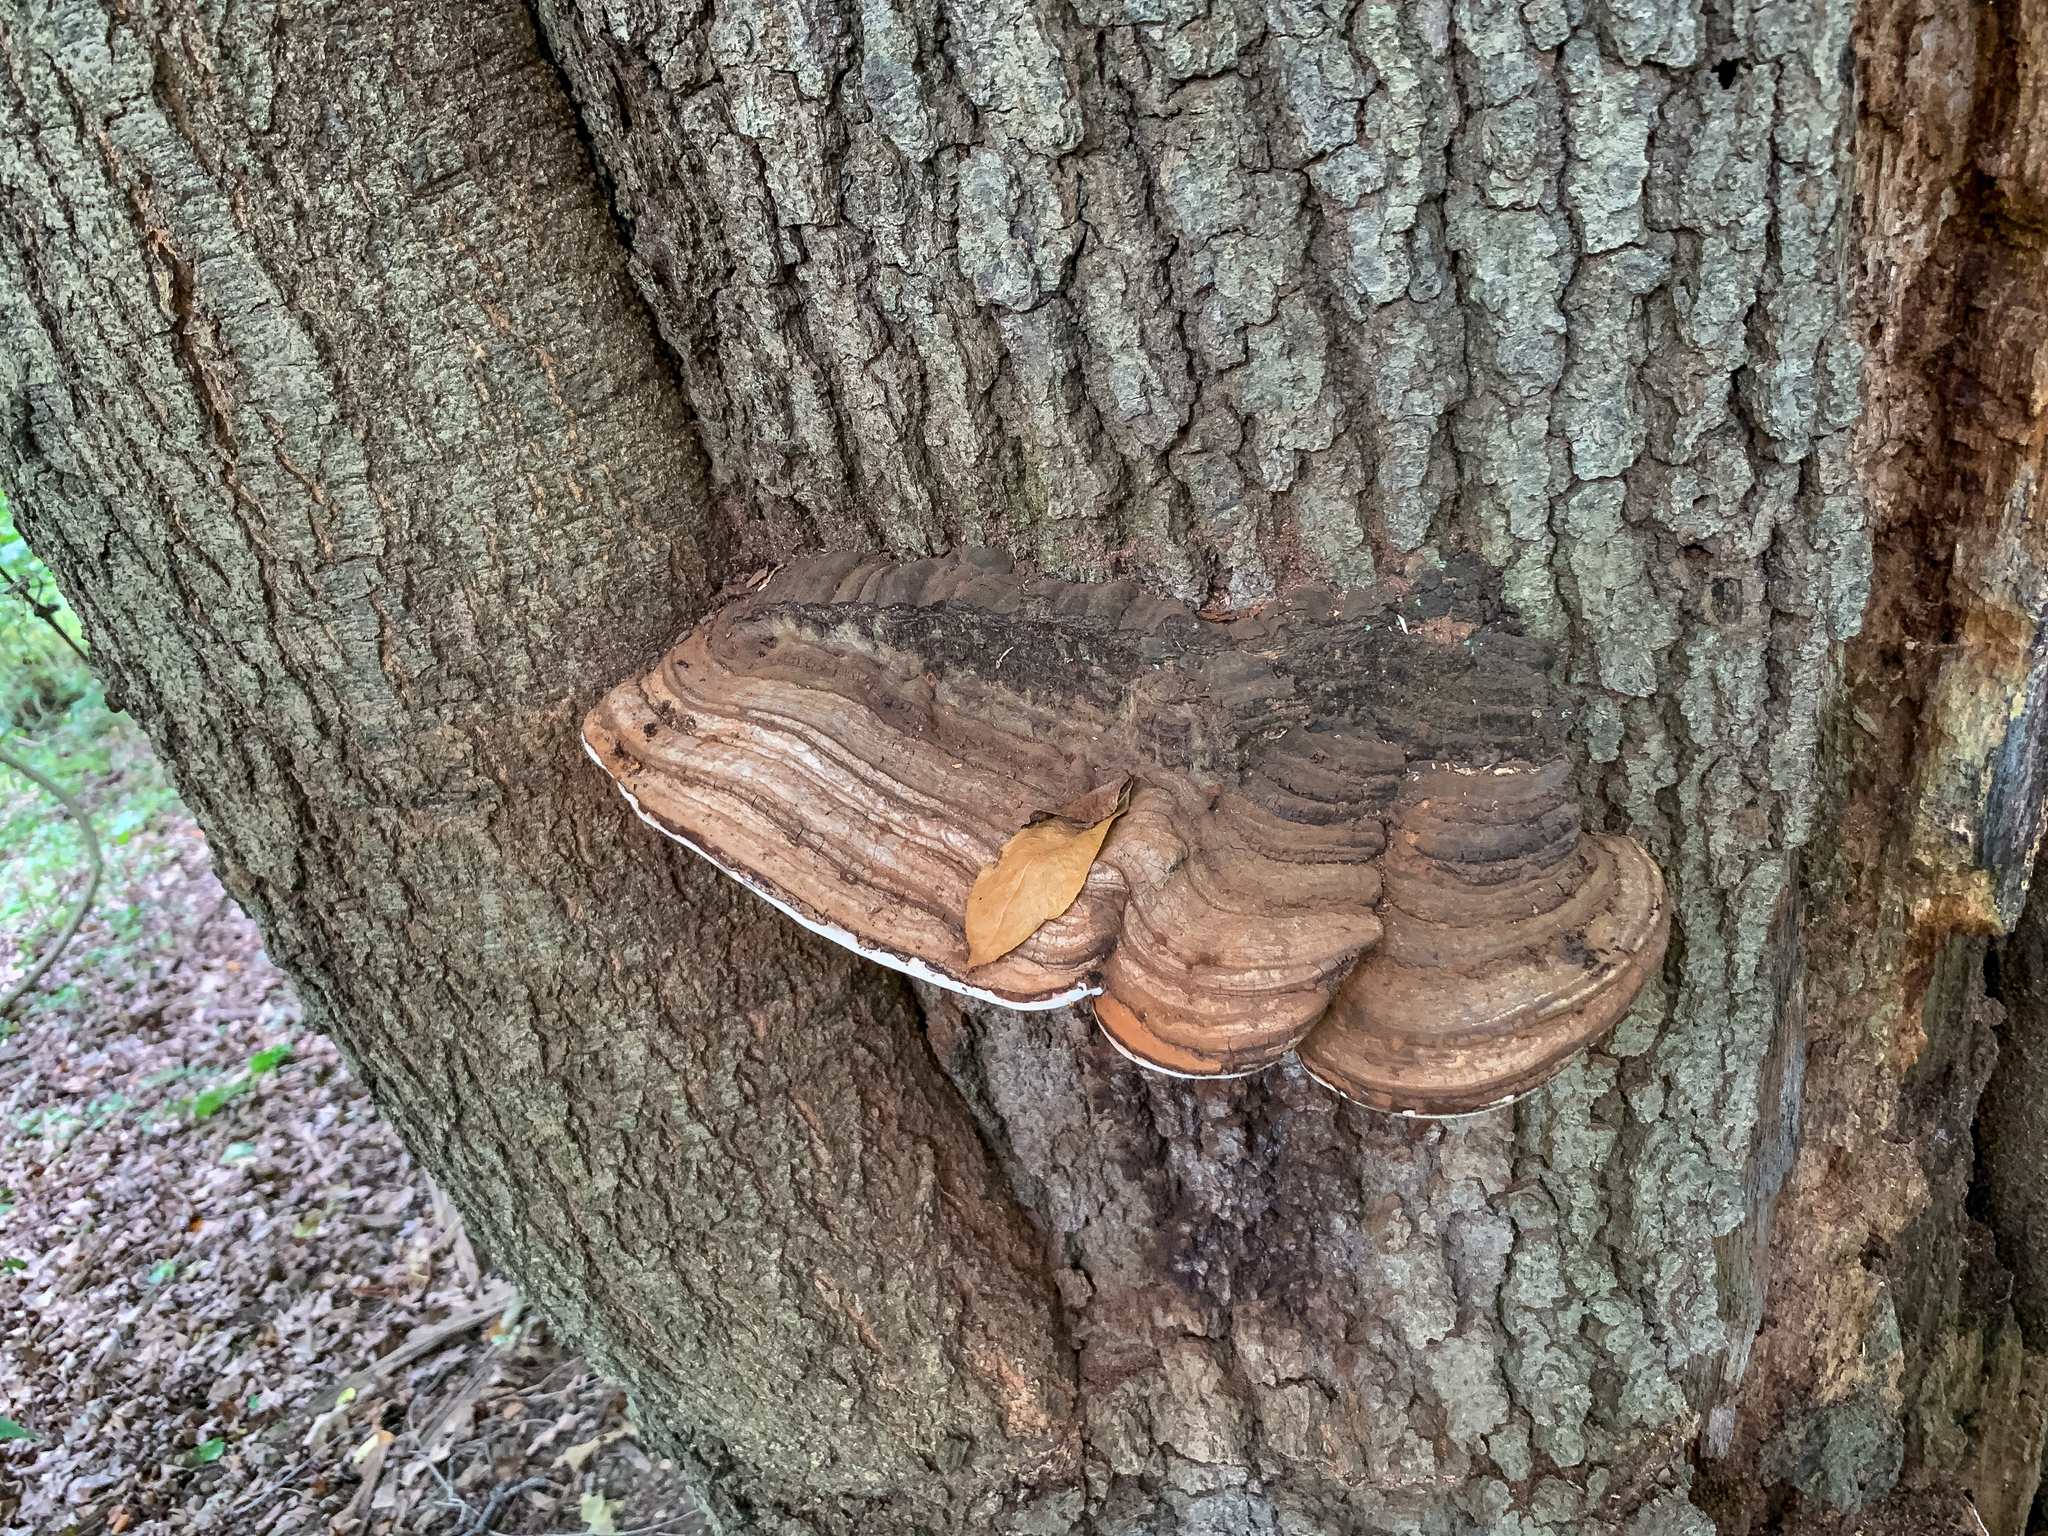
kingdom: Fungi
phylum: Basidiomycota
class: Agaricomycetes
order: Polyporales
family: Polyporaceae
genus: Ganoderma
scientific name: Ganoderma applanatum
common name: Artist's bracket
